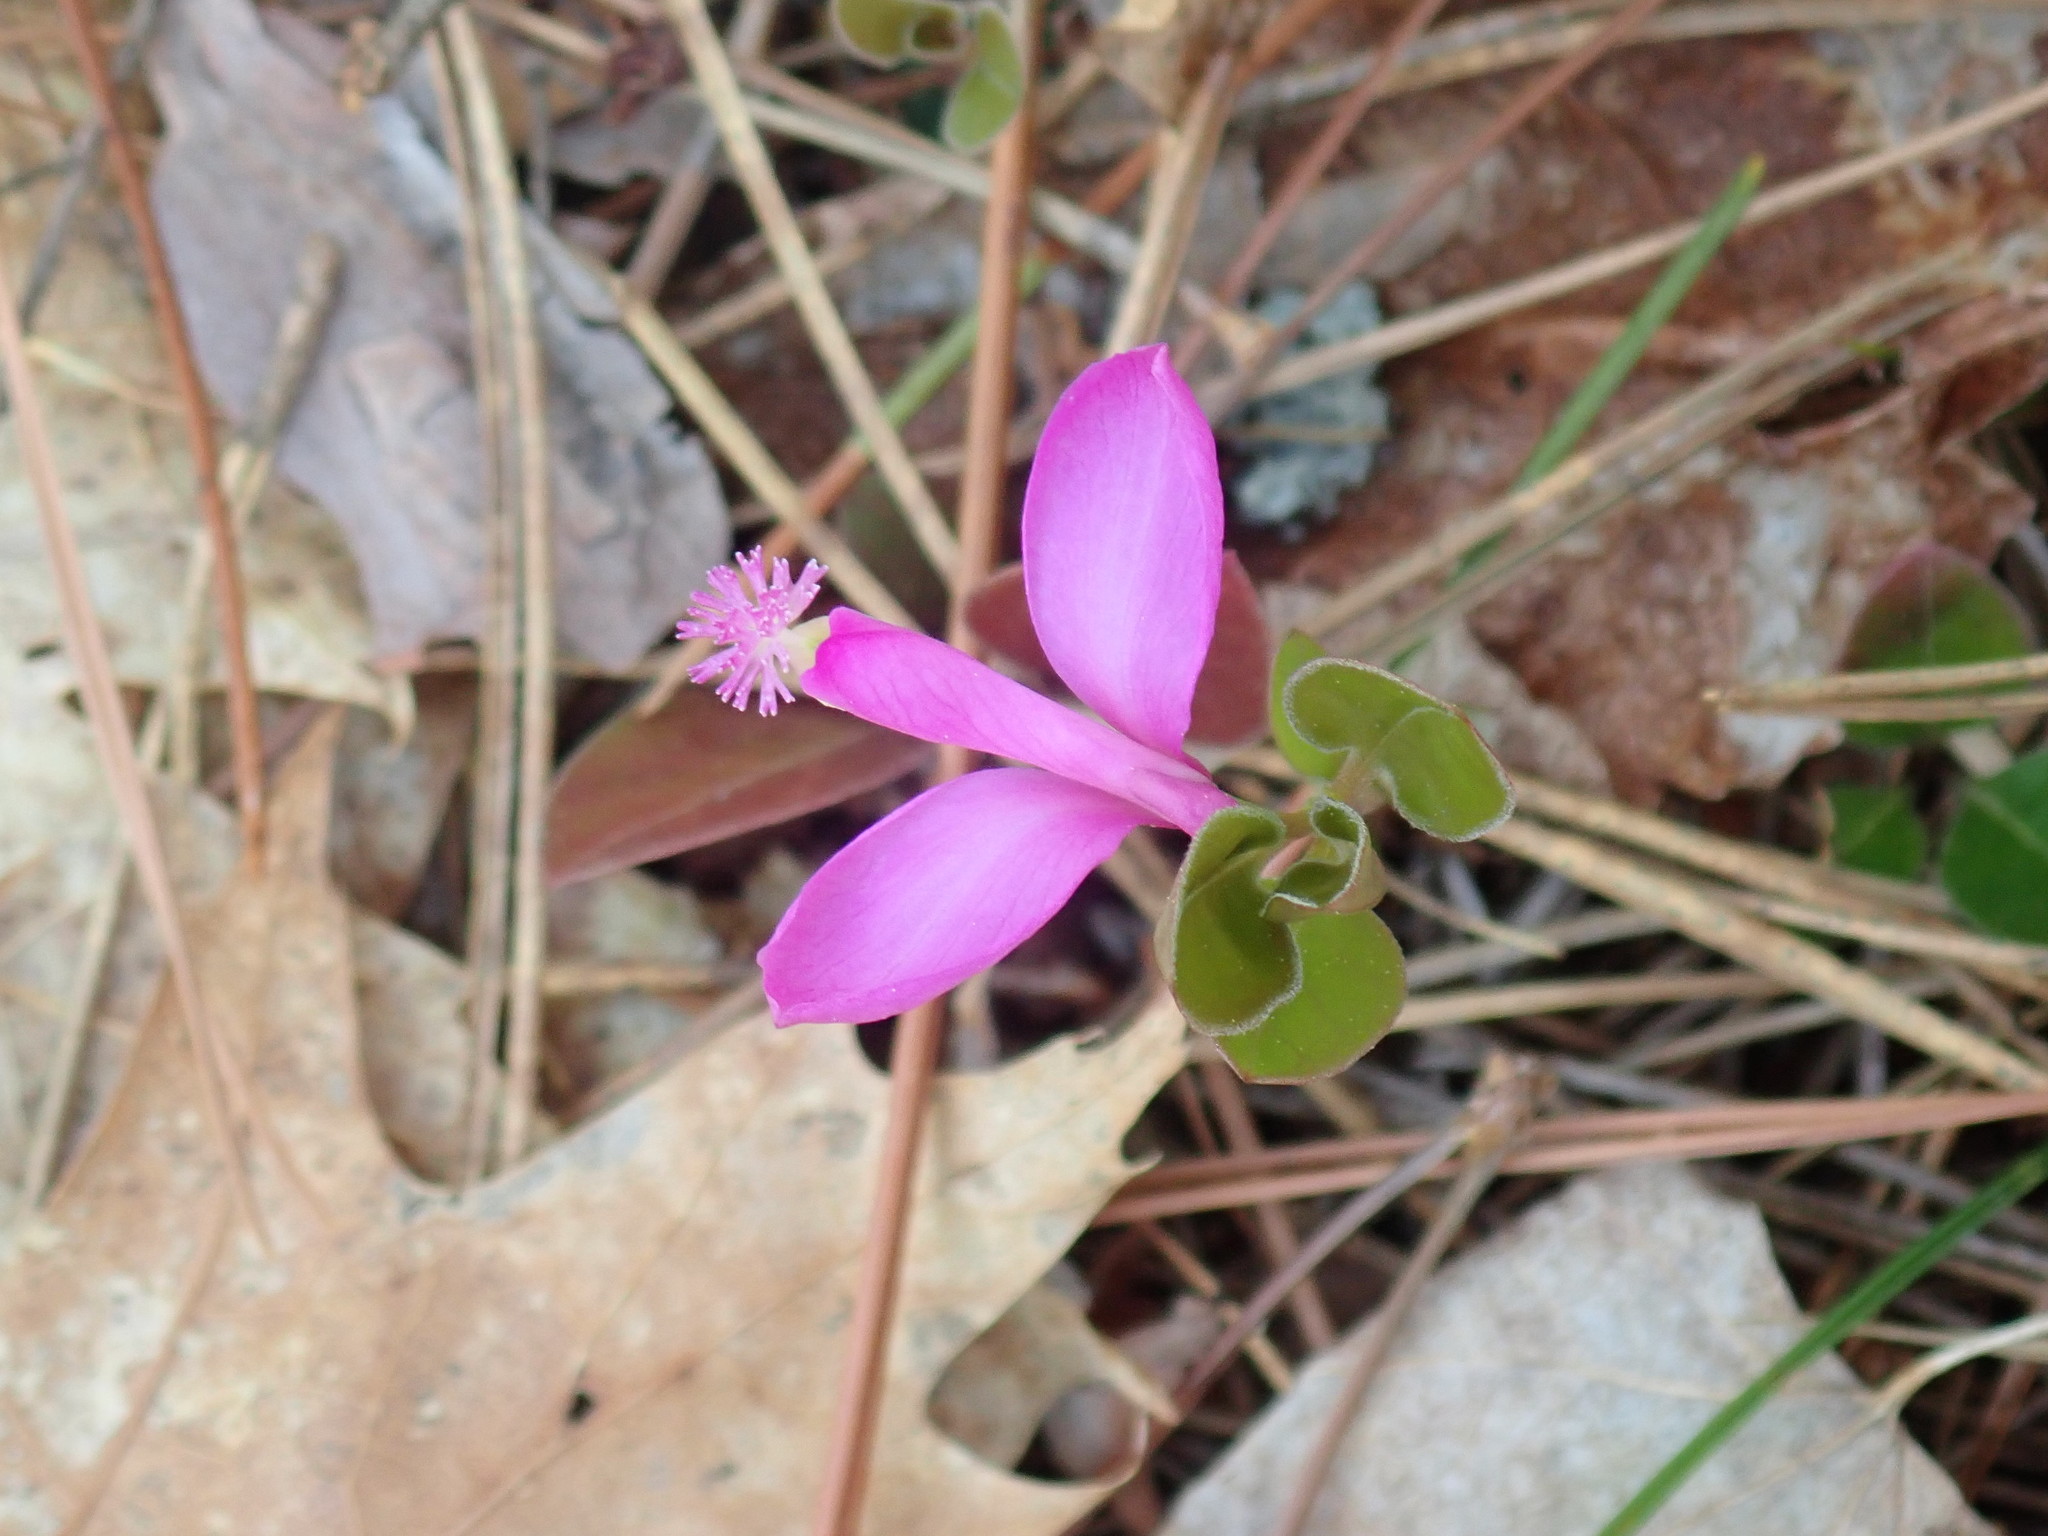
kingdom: Plantae
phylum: Tracheophyta
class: Magnoliopsida
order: Fabales
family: Polygalaceae
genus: Polygaloides
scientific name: Polygaloides paucifolia
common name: Bird-on-the-wing
